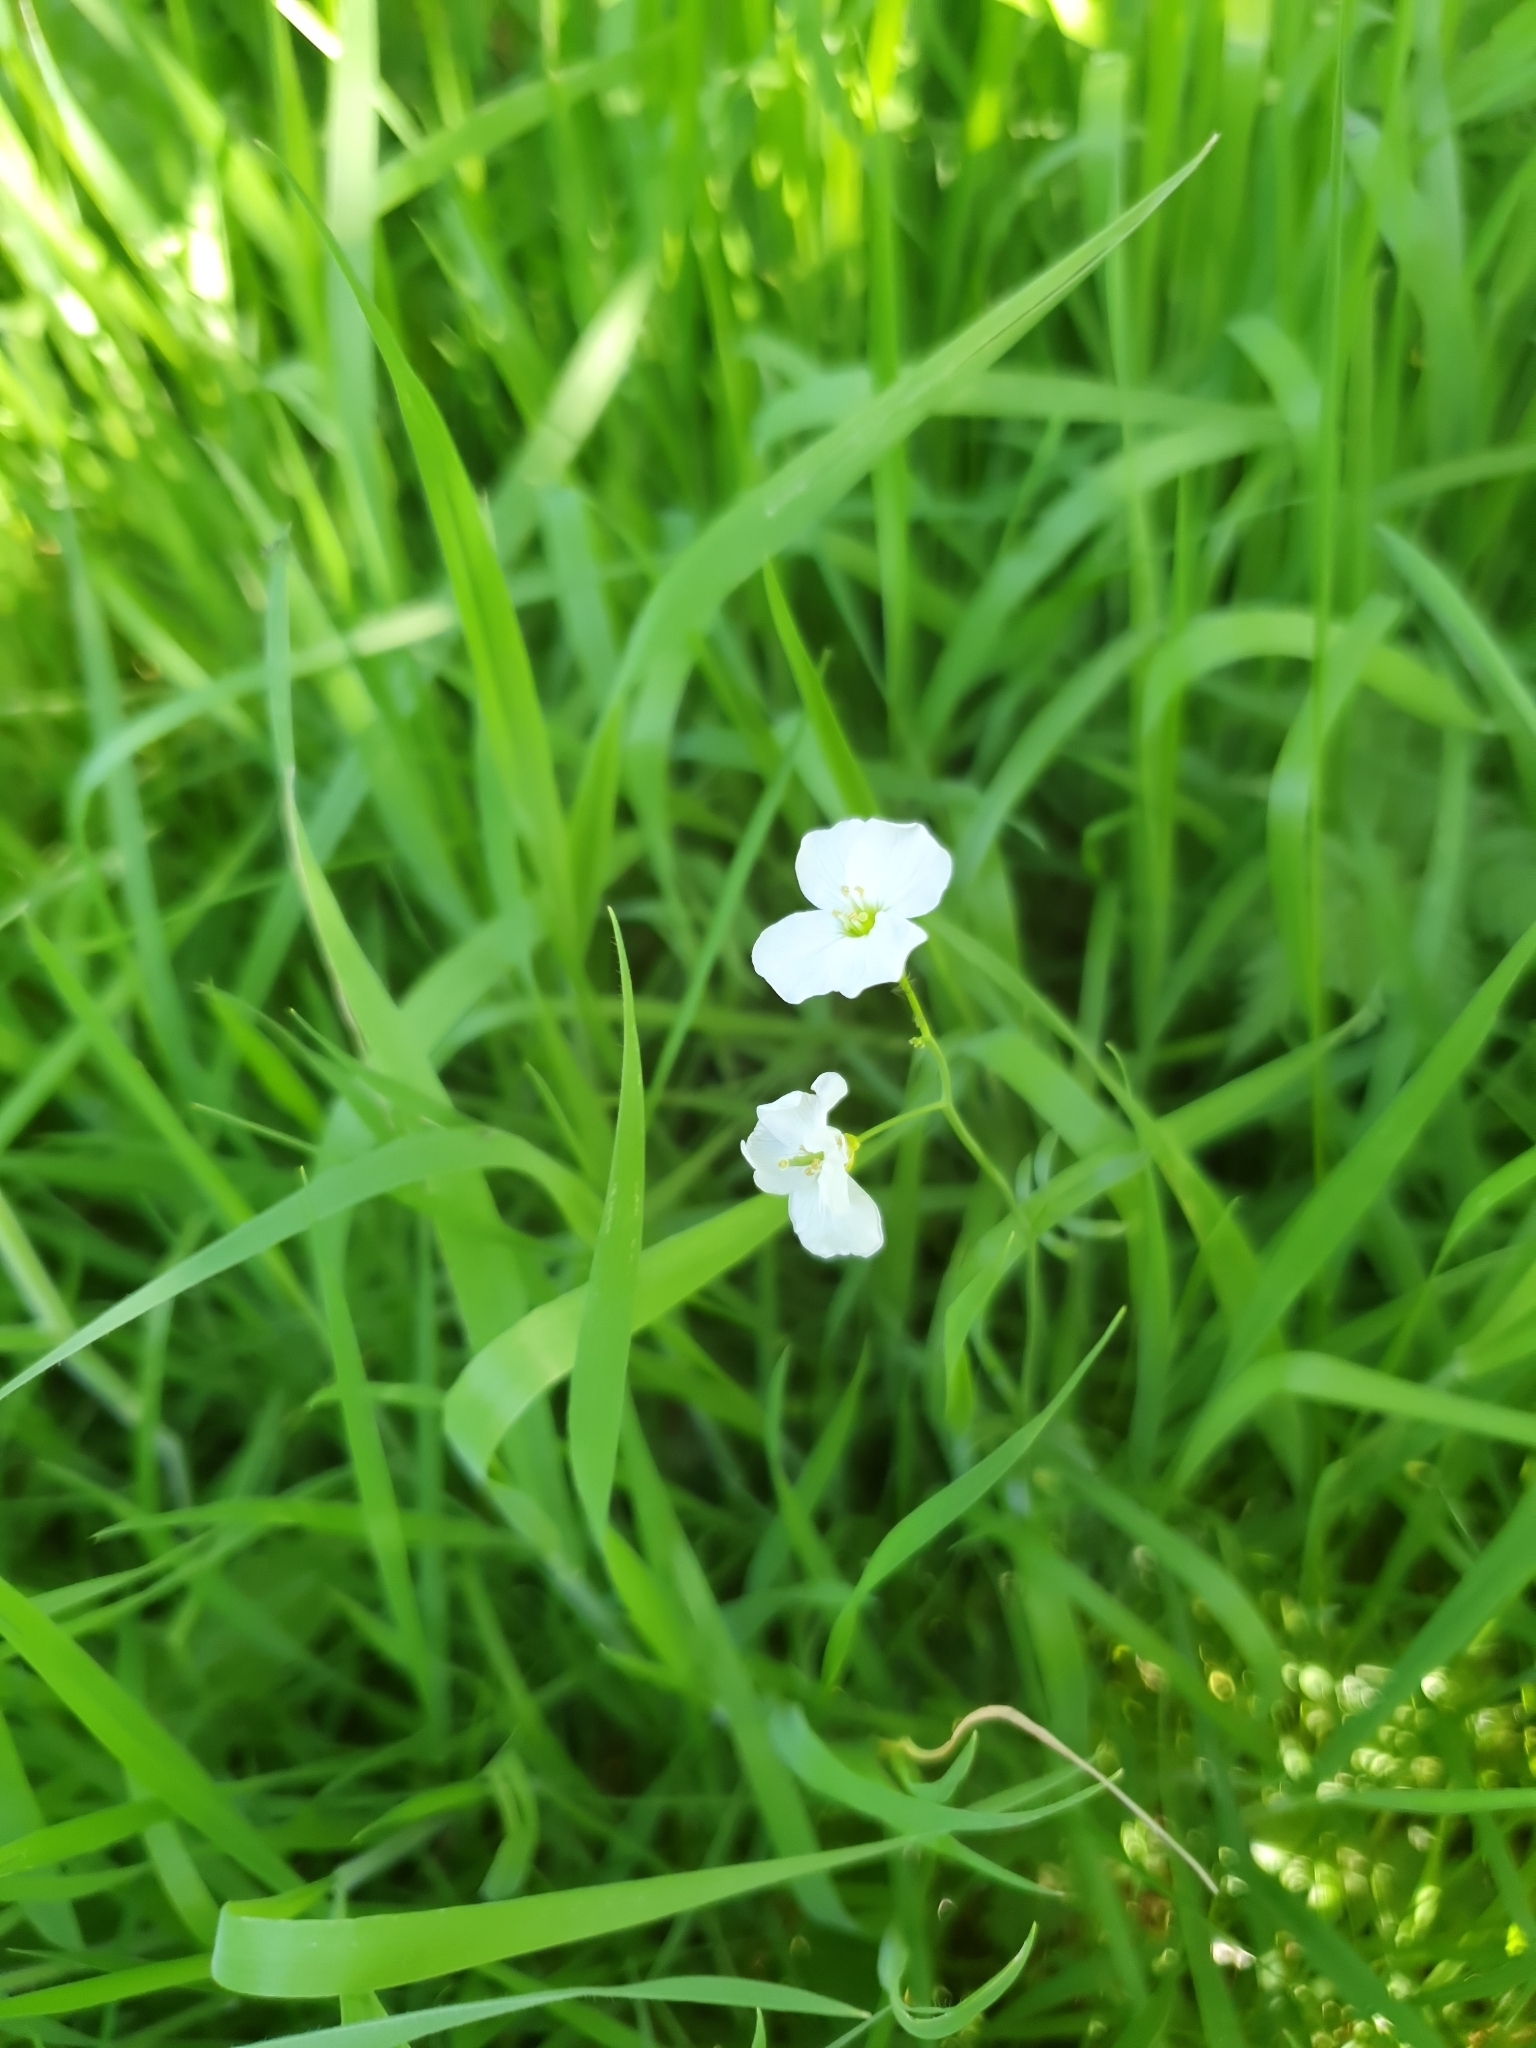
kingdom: Plantae
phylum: Tracheophyta
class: Magnoliopsida
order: Brassicales
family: Brassicaceae
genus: Cardamine
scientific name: Cardamine pratensis
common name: Cuckoo flower
